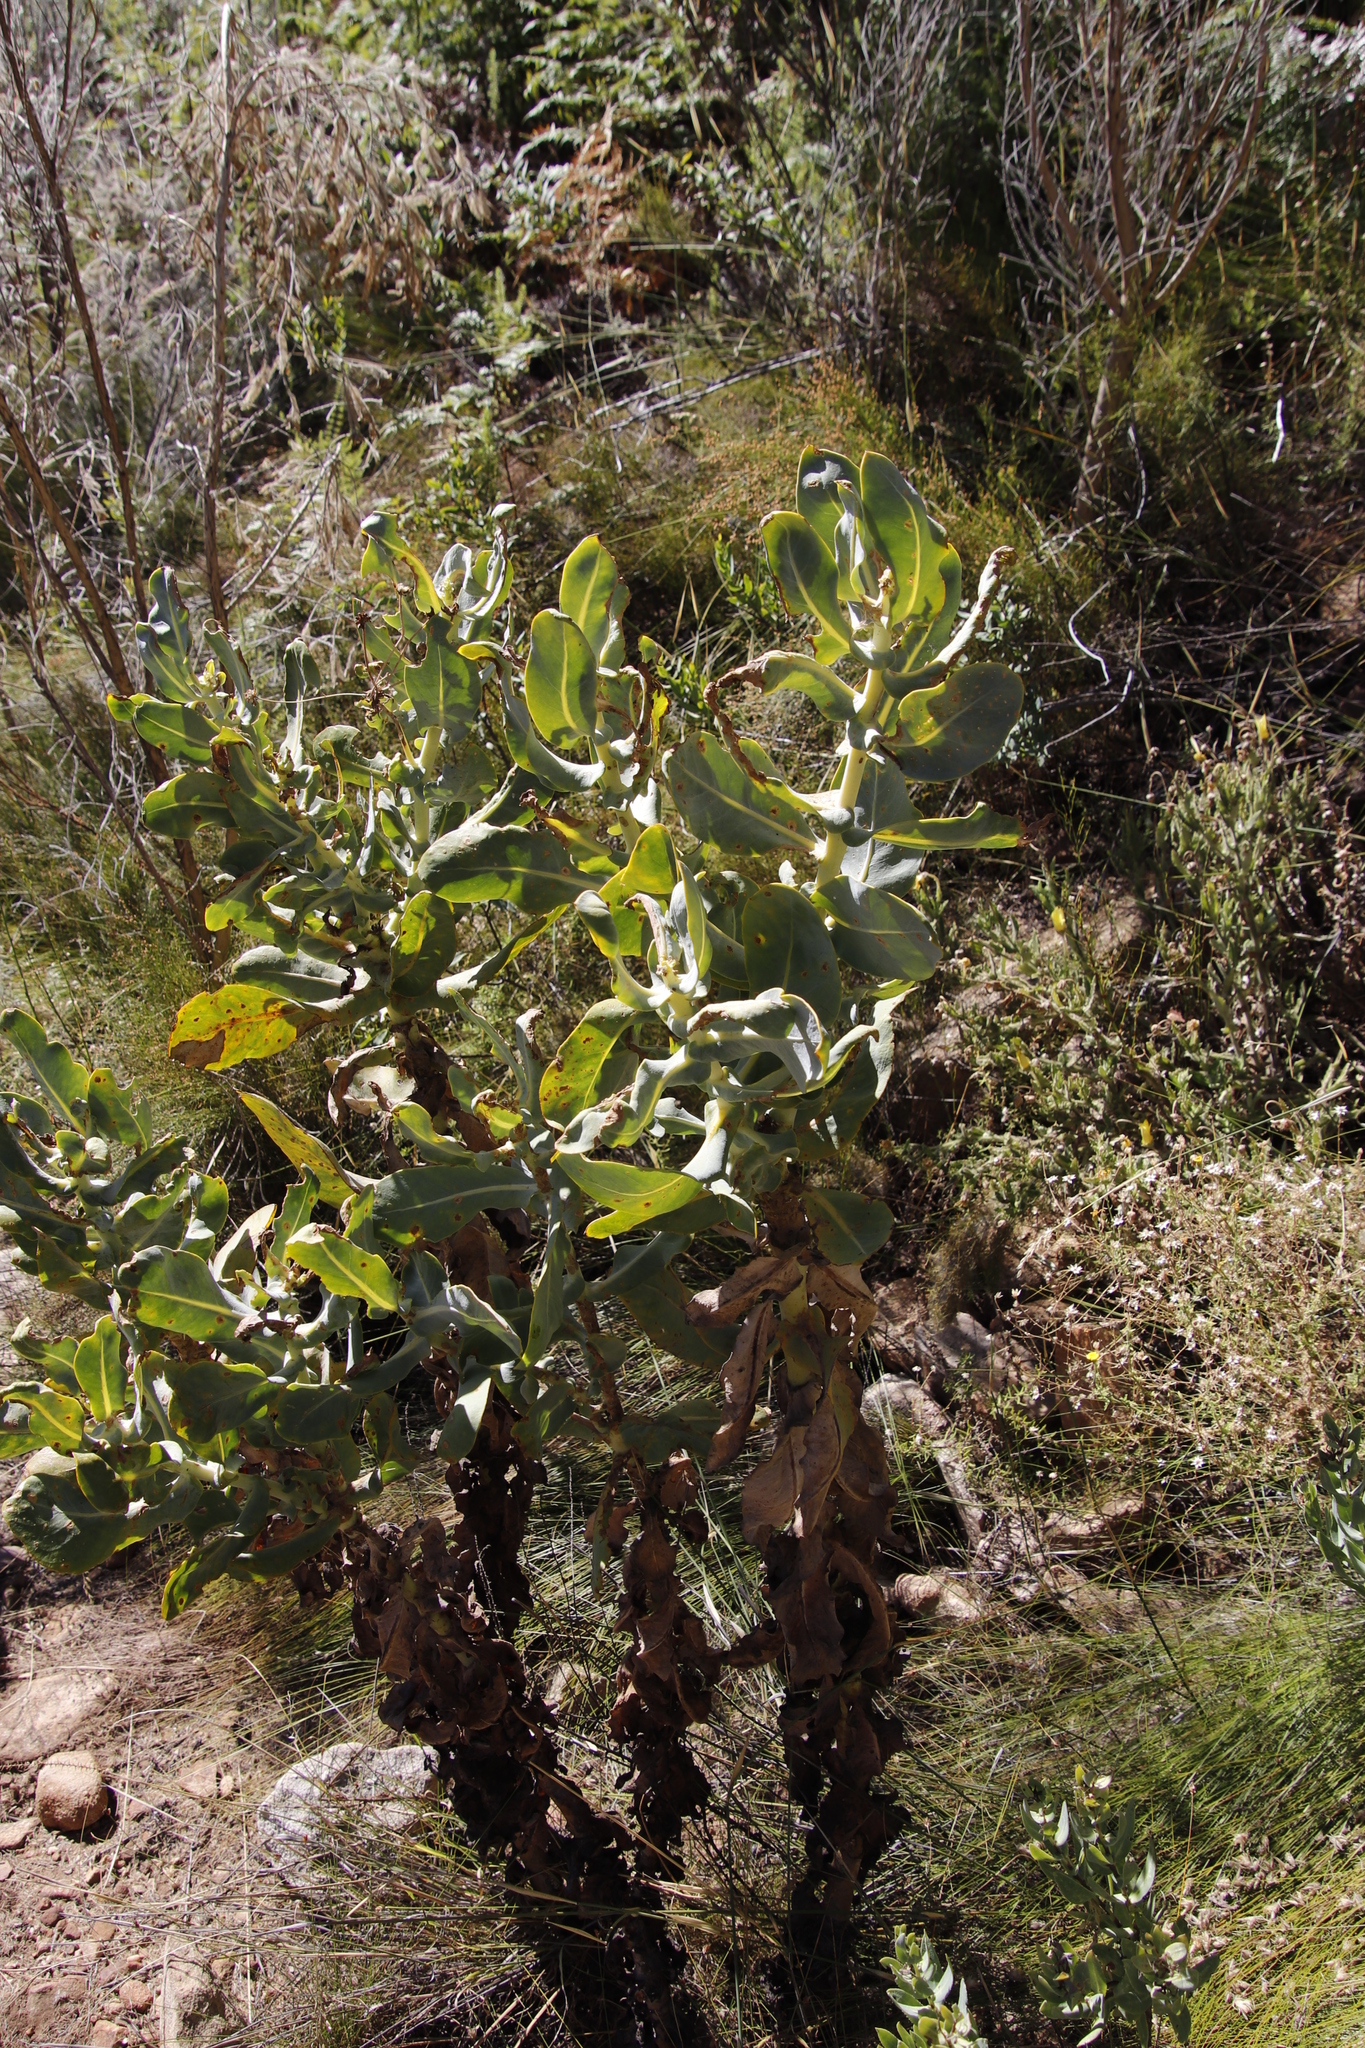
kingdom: Plantae
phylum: Tracheophyta
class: Magnoliopsida
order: Asterales
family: Asteraceae
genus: Othonna
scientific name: Othonna parviflora
